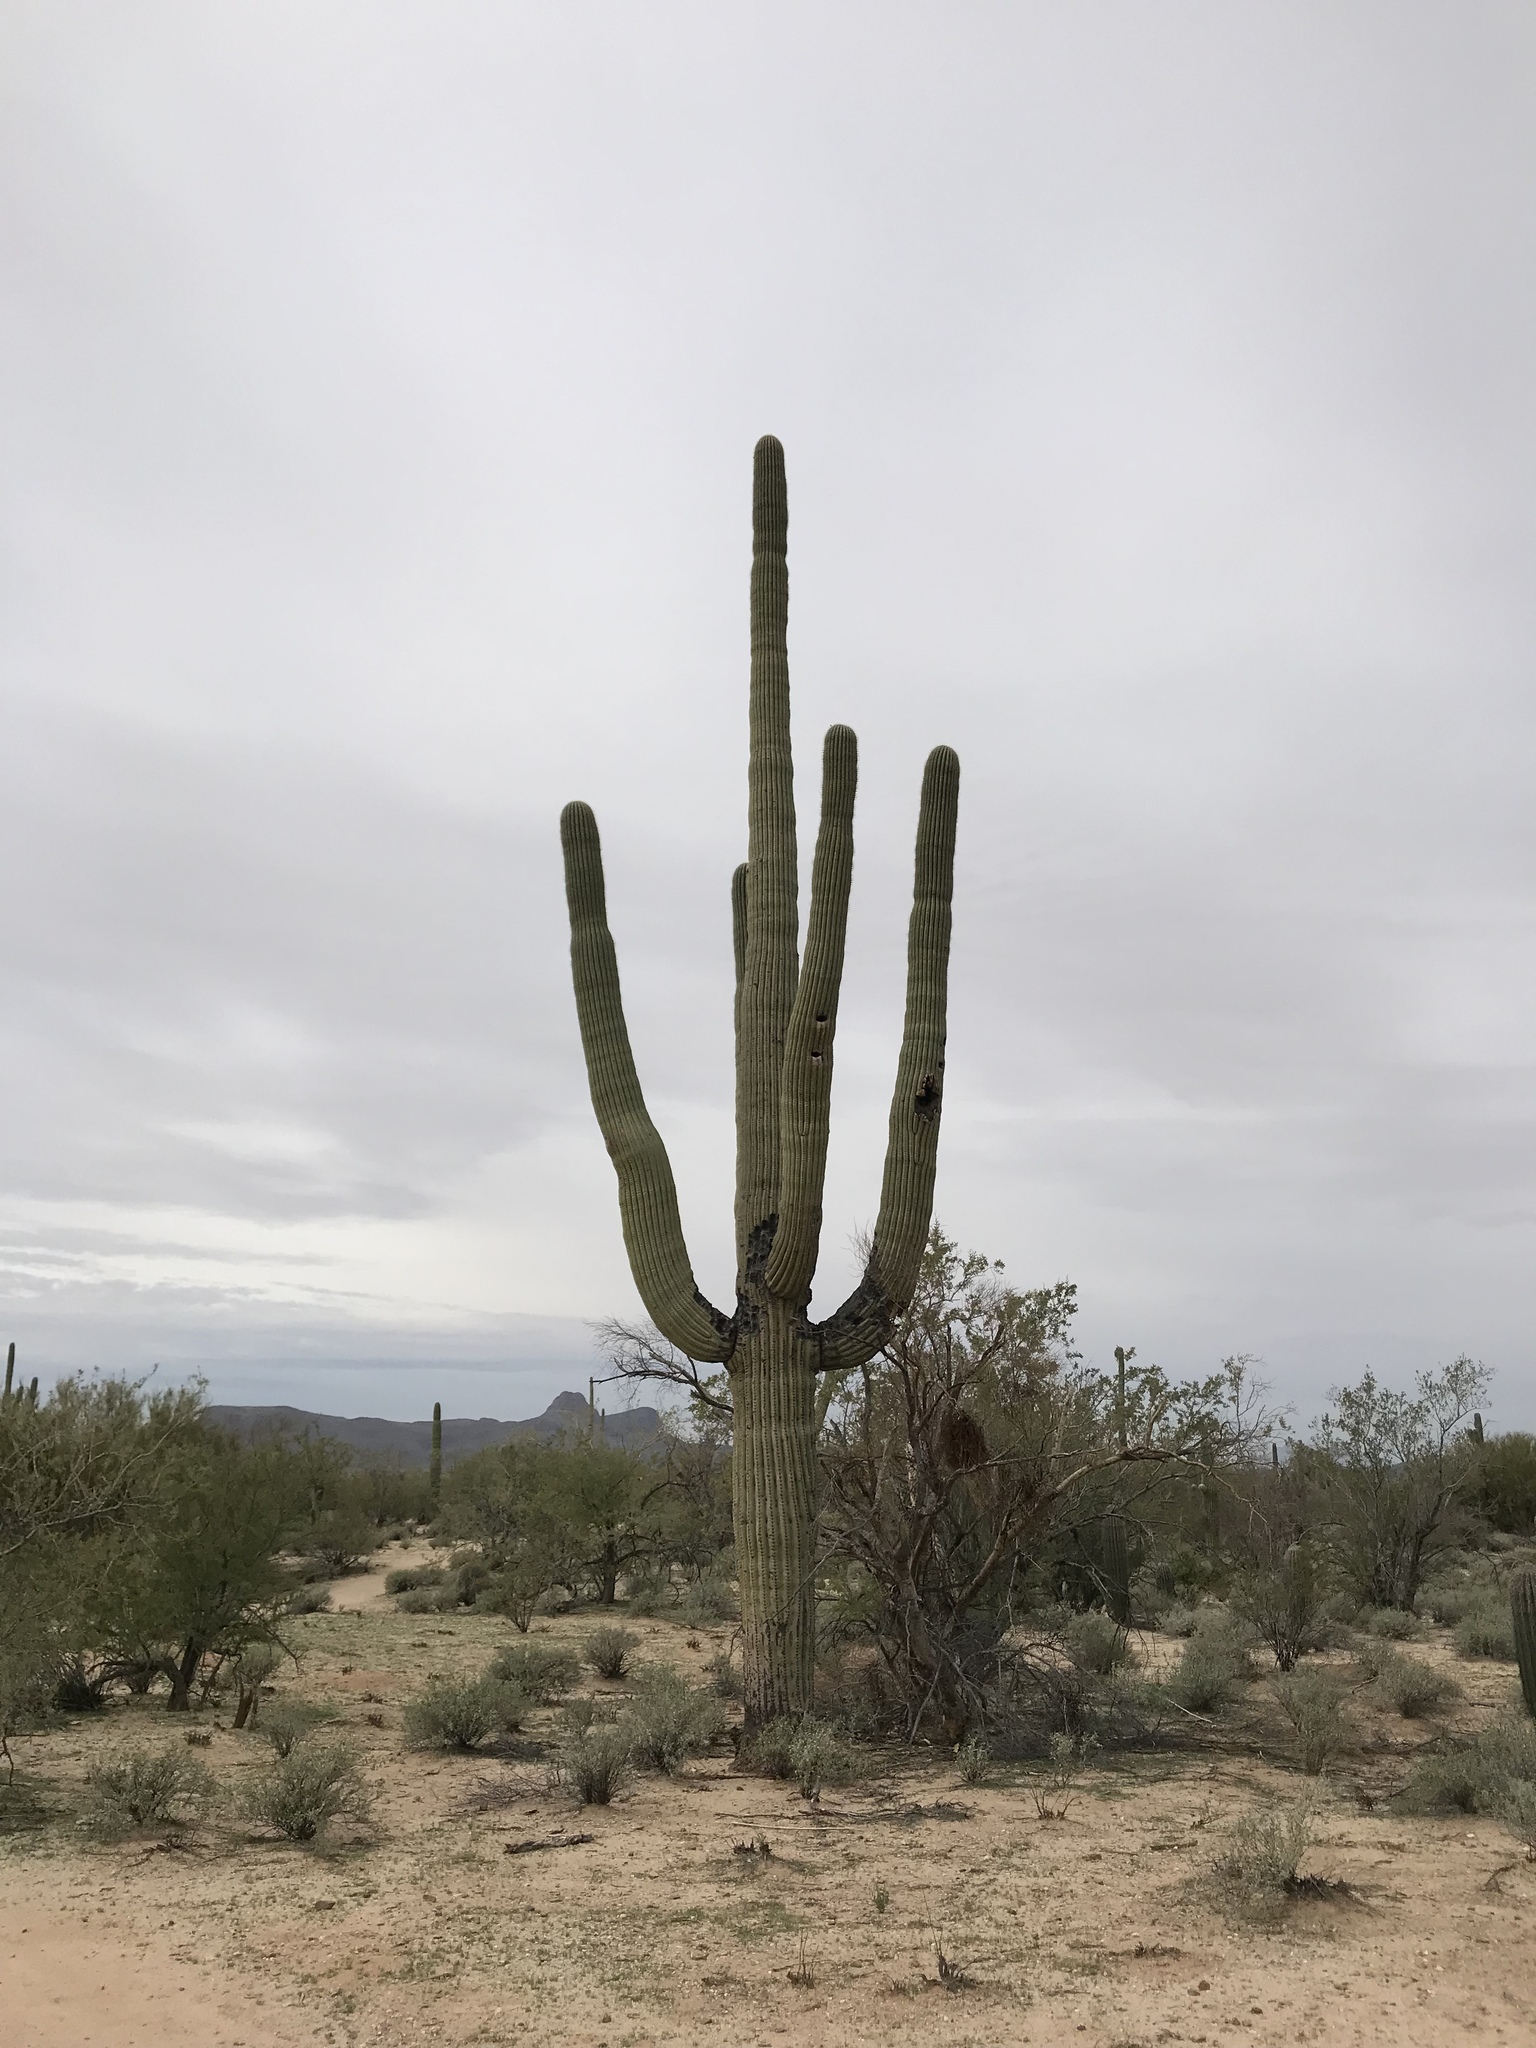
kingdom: Plantae
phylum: Tracheophyta
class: Magnoliopsida
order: Caryophyllales
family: Cactaceae
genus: Carnegiea
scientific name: Carnegiea gigantea
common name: Saguaro
